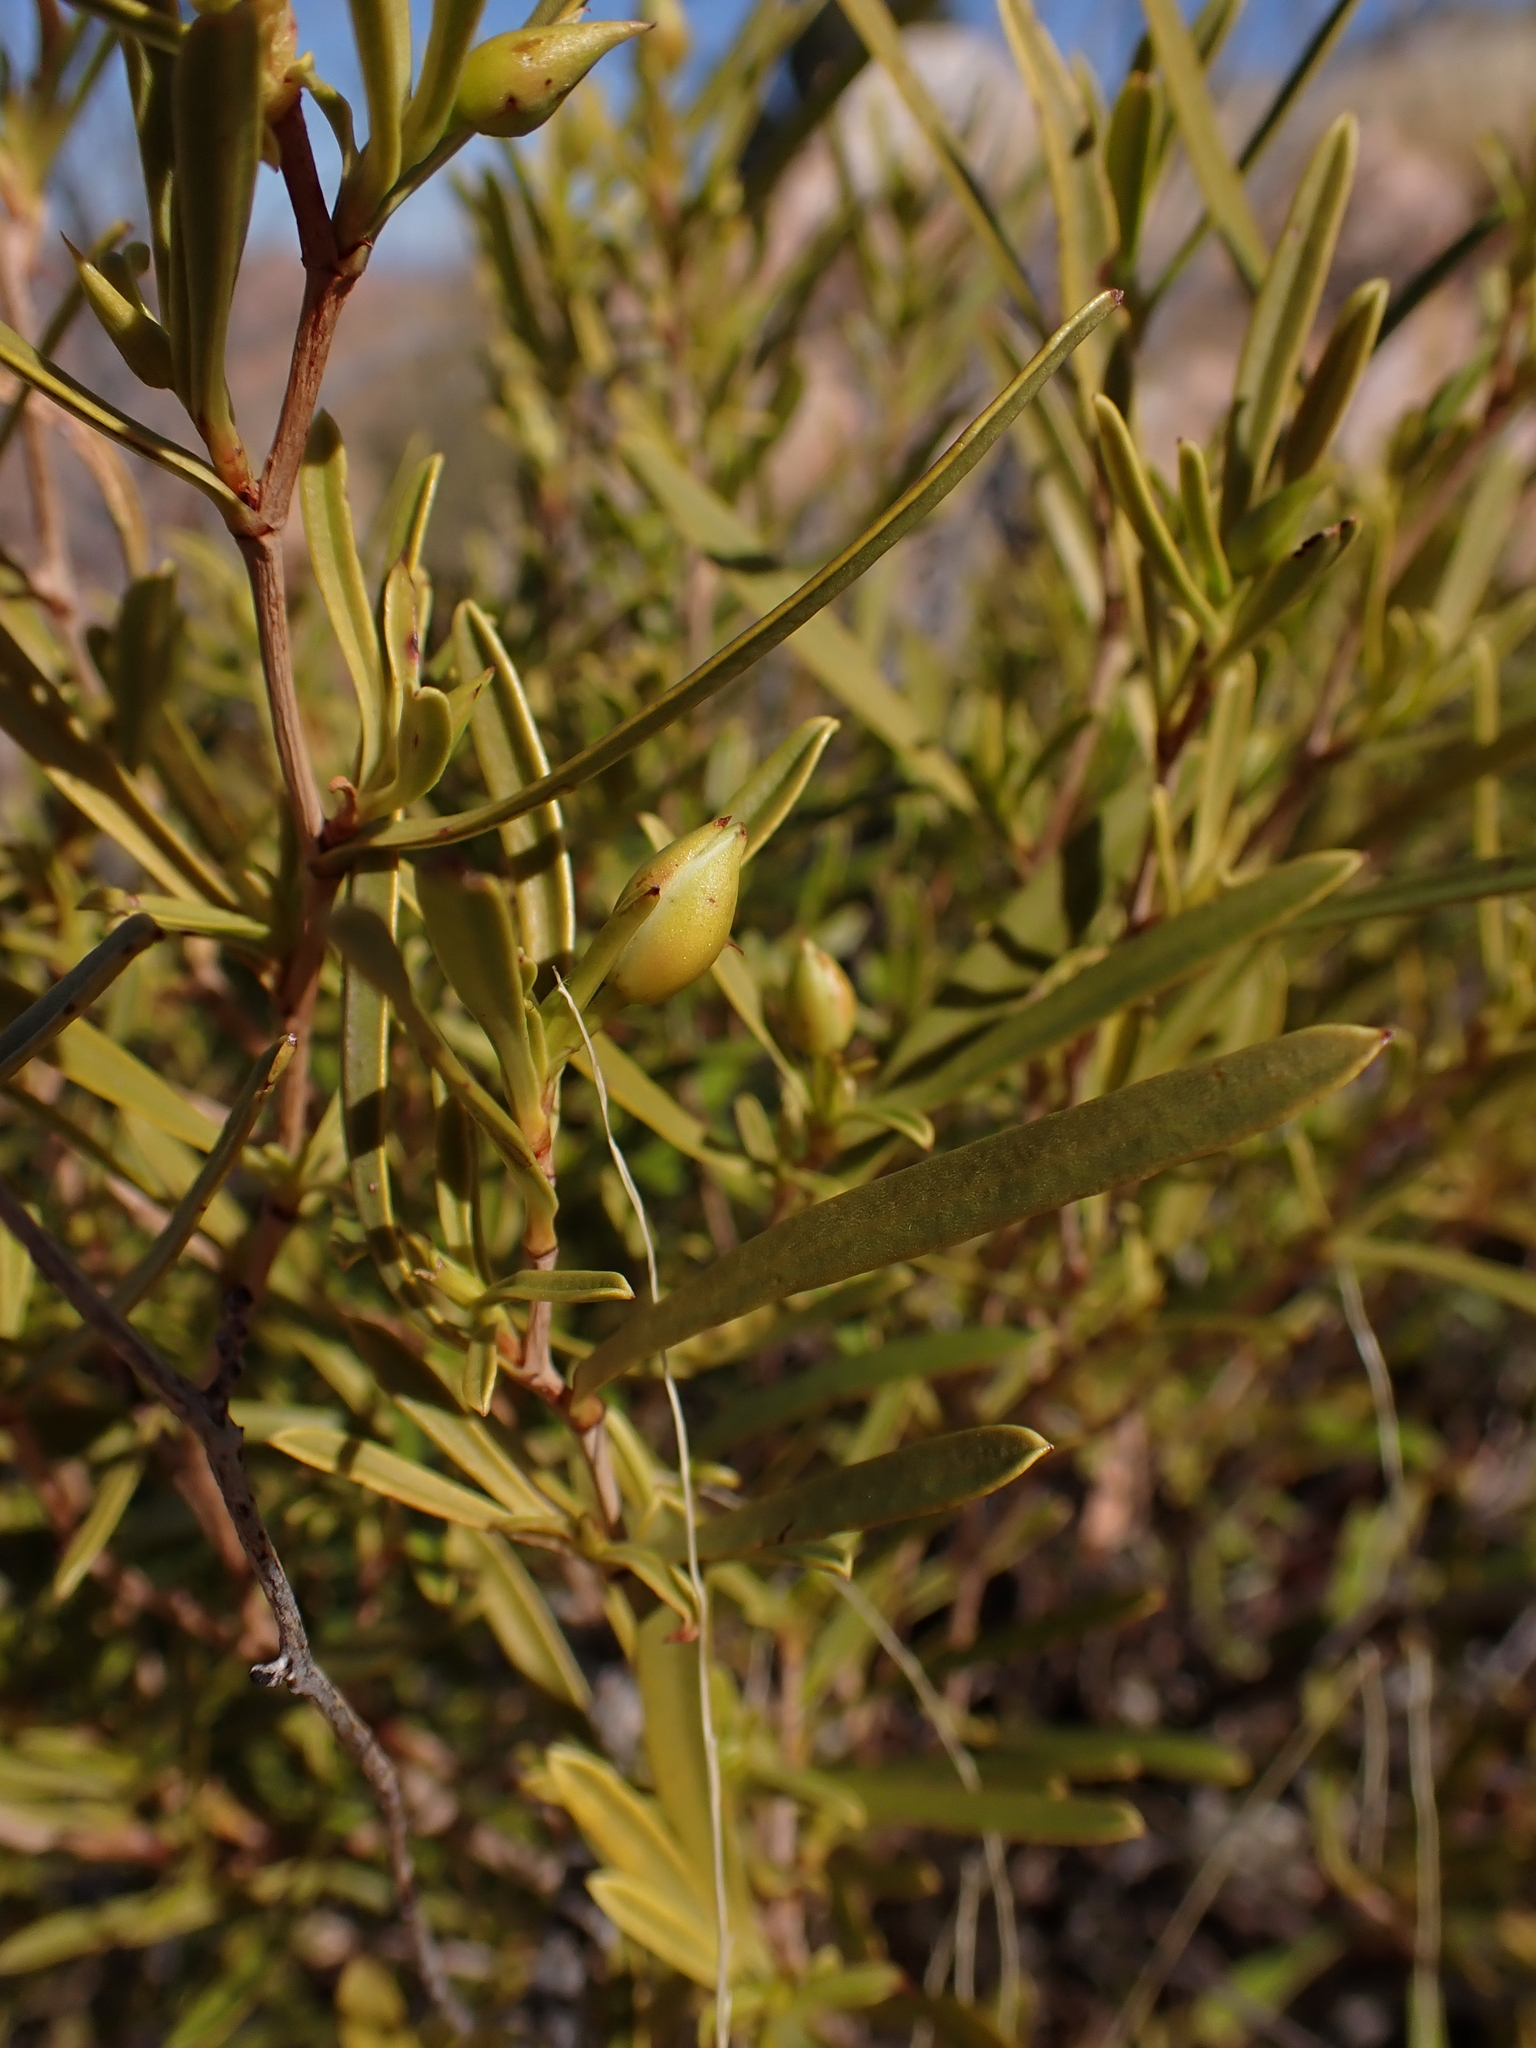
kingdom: Plantae
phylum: Tracheophyta
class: Magnoliopsida
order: Dilleniales
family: Dilleniaceae
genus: Hibbertia
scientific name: Hibbertia glaberrima
